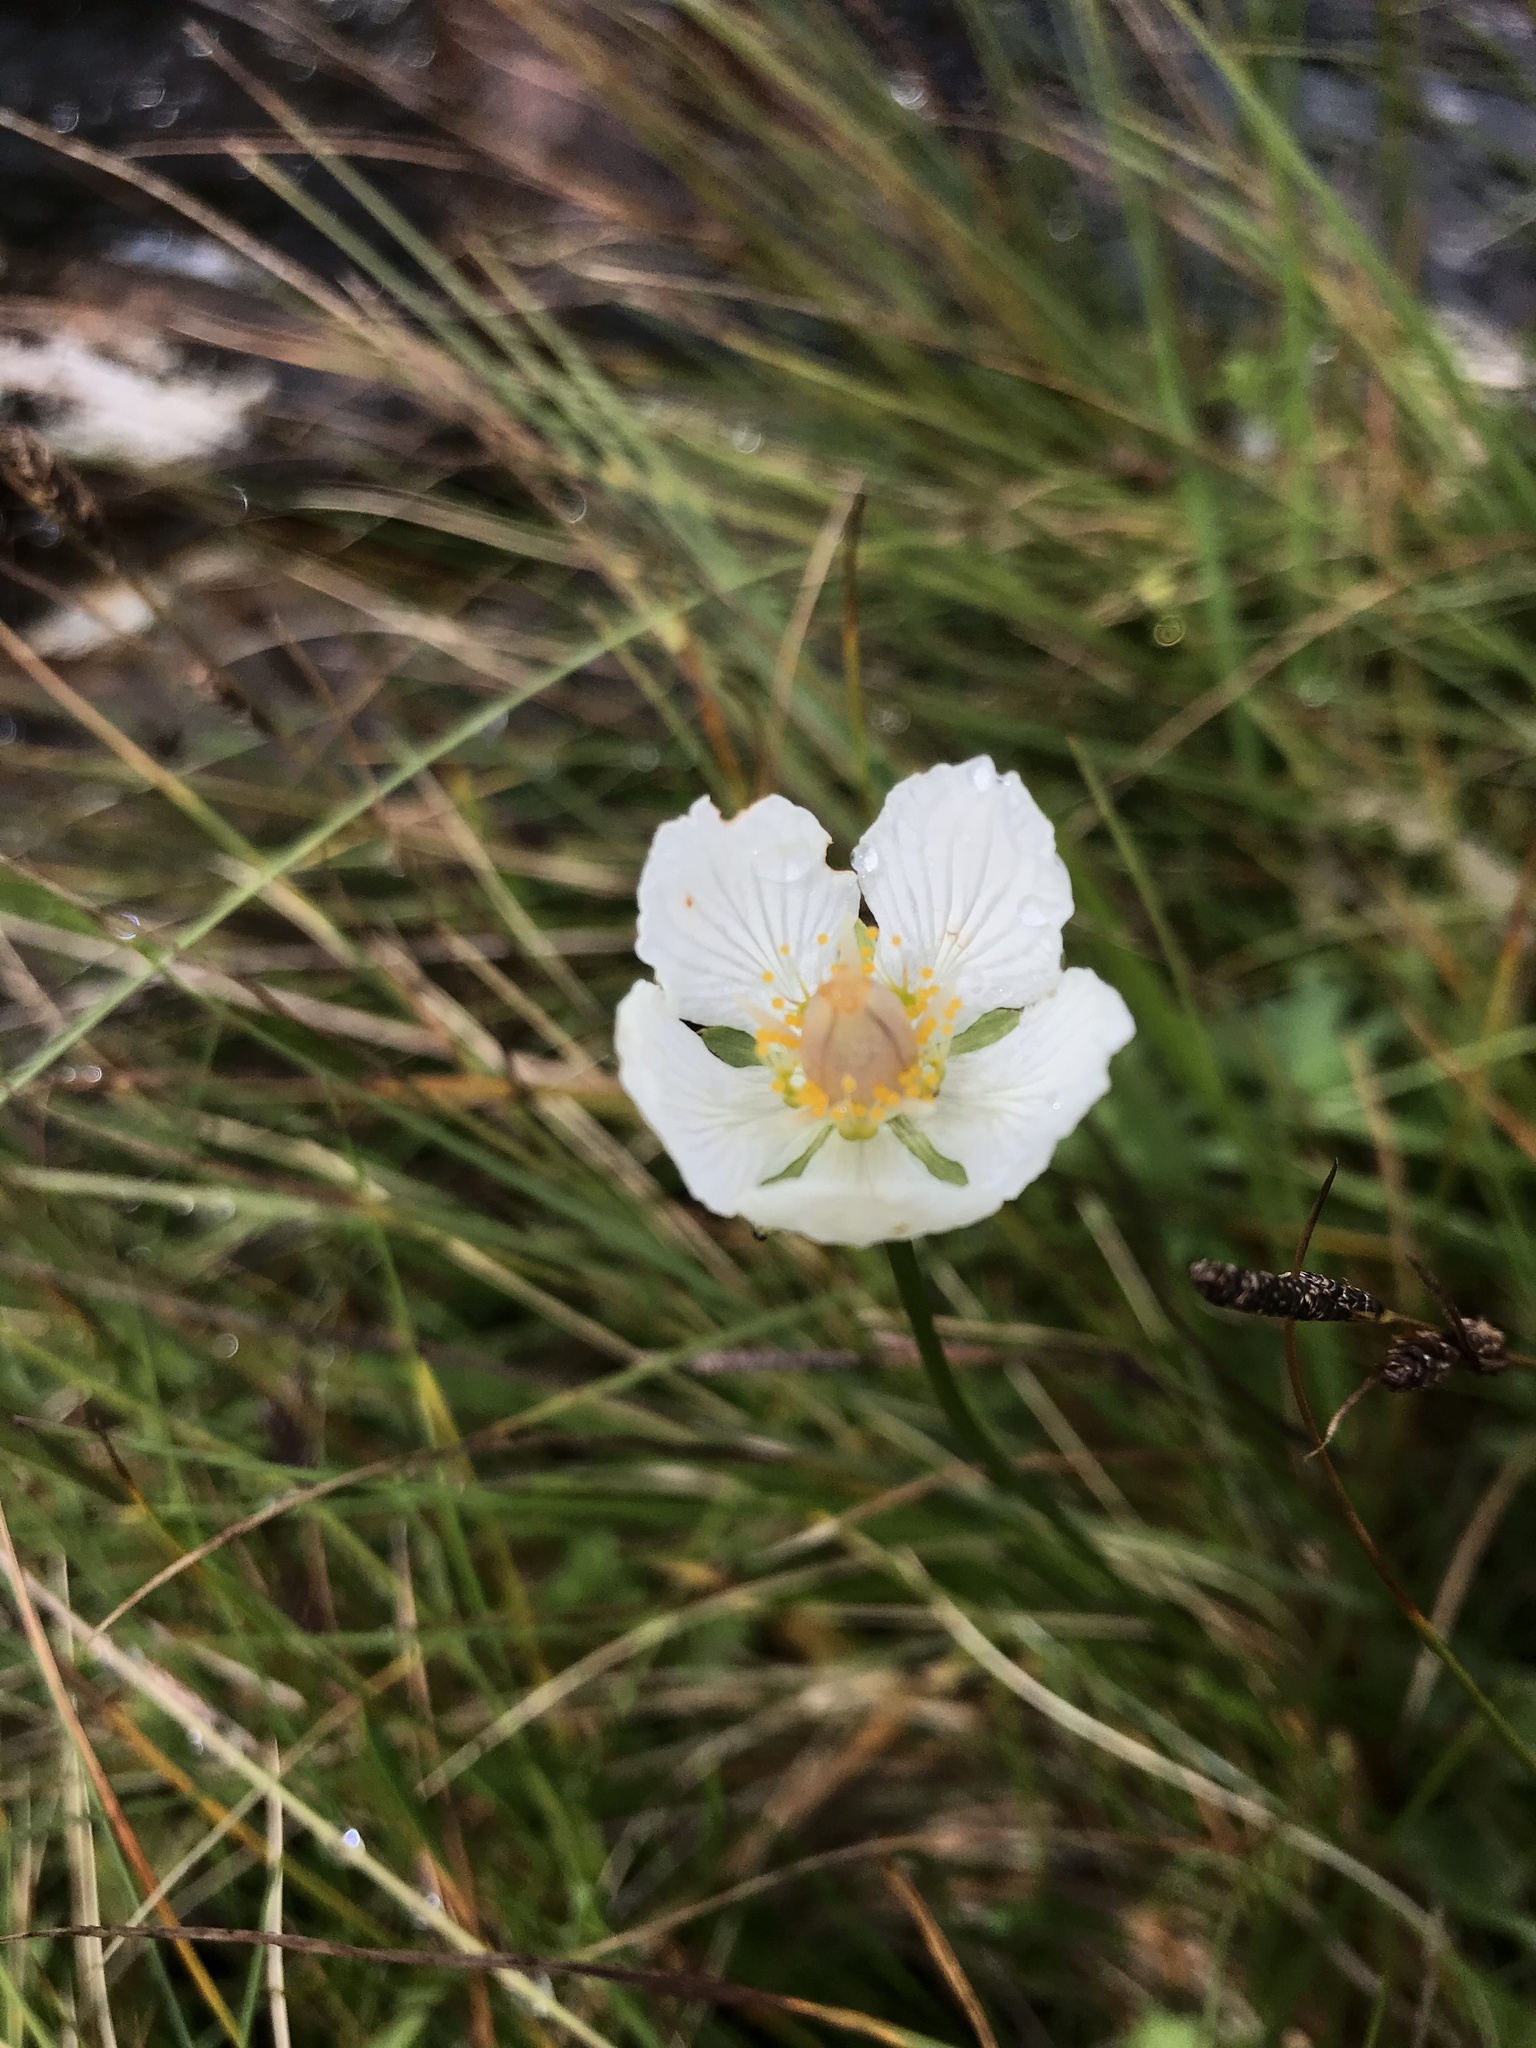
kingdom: Plantae
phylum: Tracheophyta
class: Magnoliopsida
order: Celastrales
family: Parnassiaceae
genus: Parnassia
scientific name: Parnassia palustris
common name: Grass-of-parnassus
